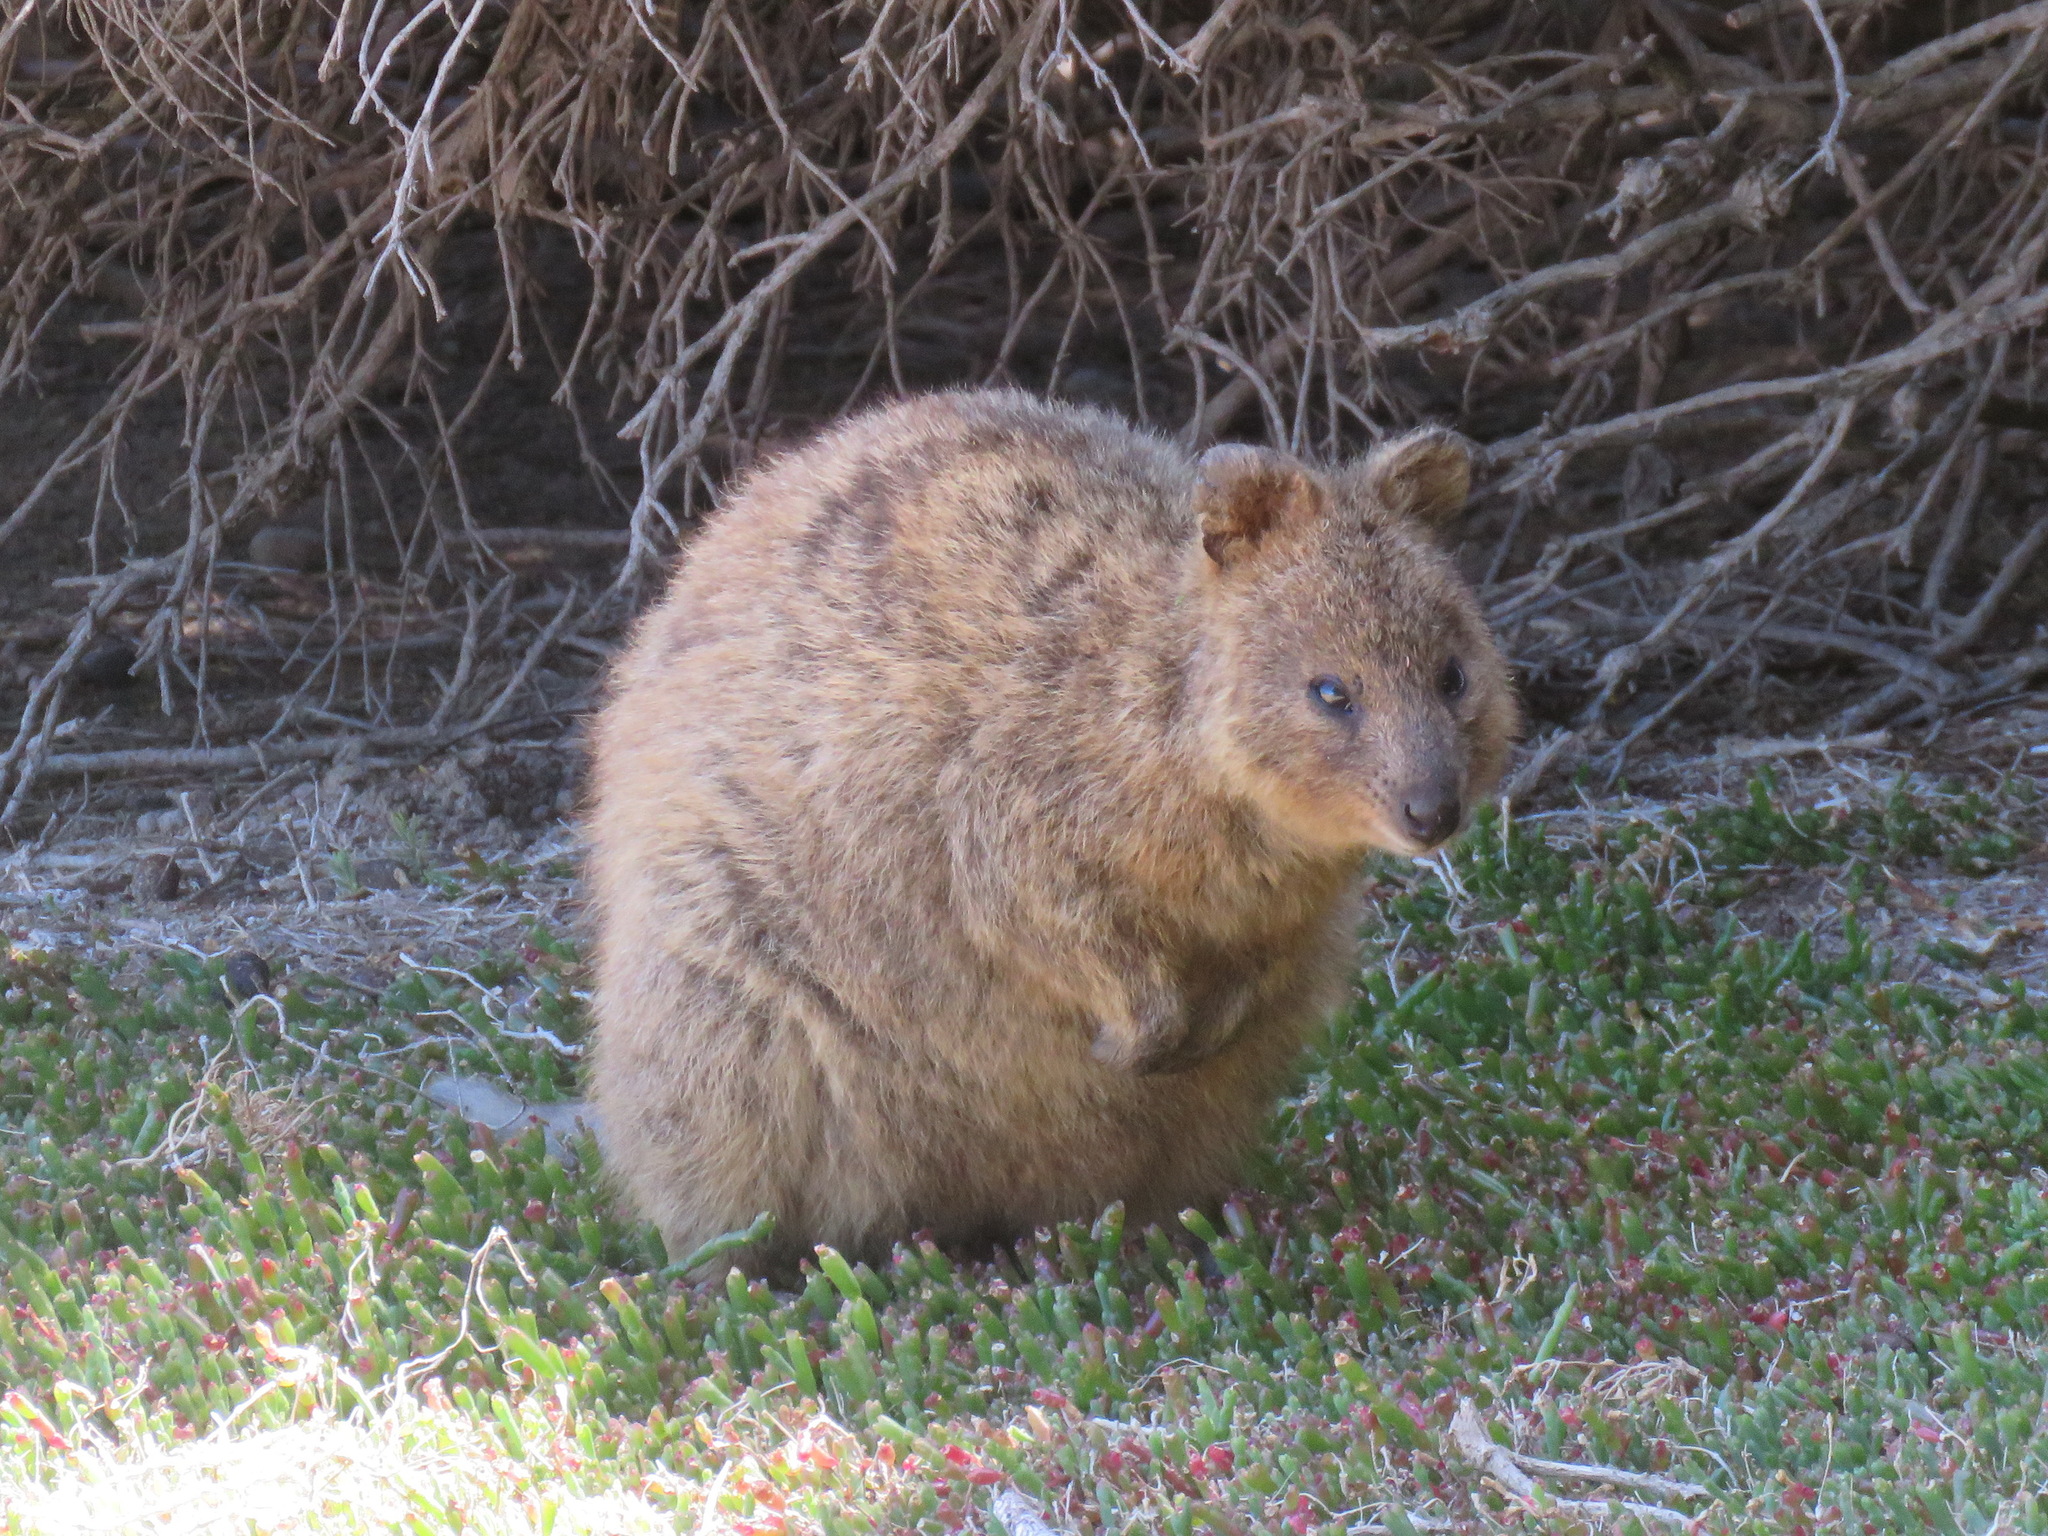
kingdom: Animalia
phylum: Chordata
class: Mammalia
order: Diprotodontia
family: Macropodidae
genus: Setonix
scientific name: Setonix brachyurus
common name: Quokka
